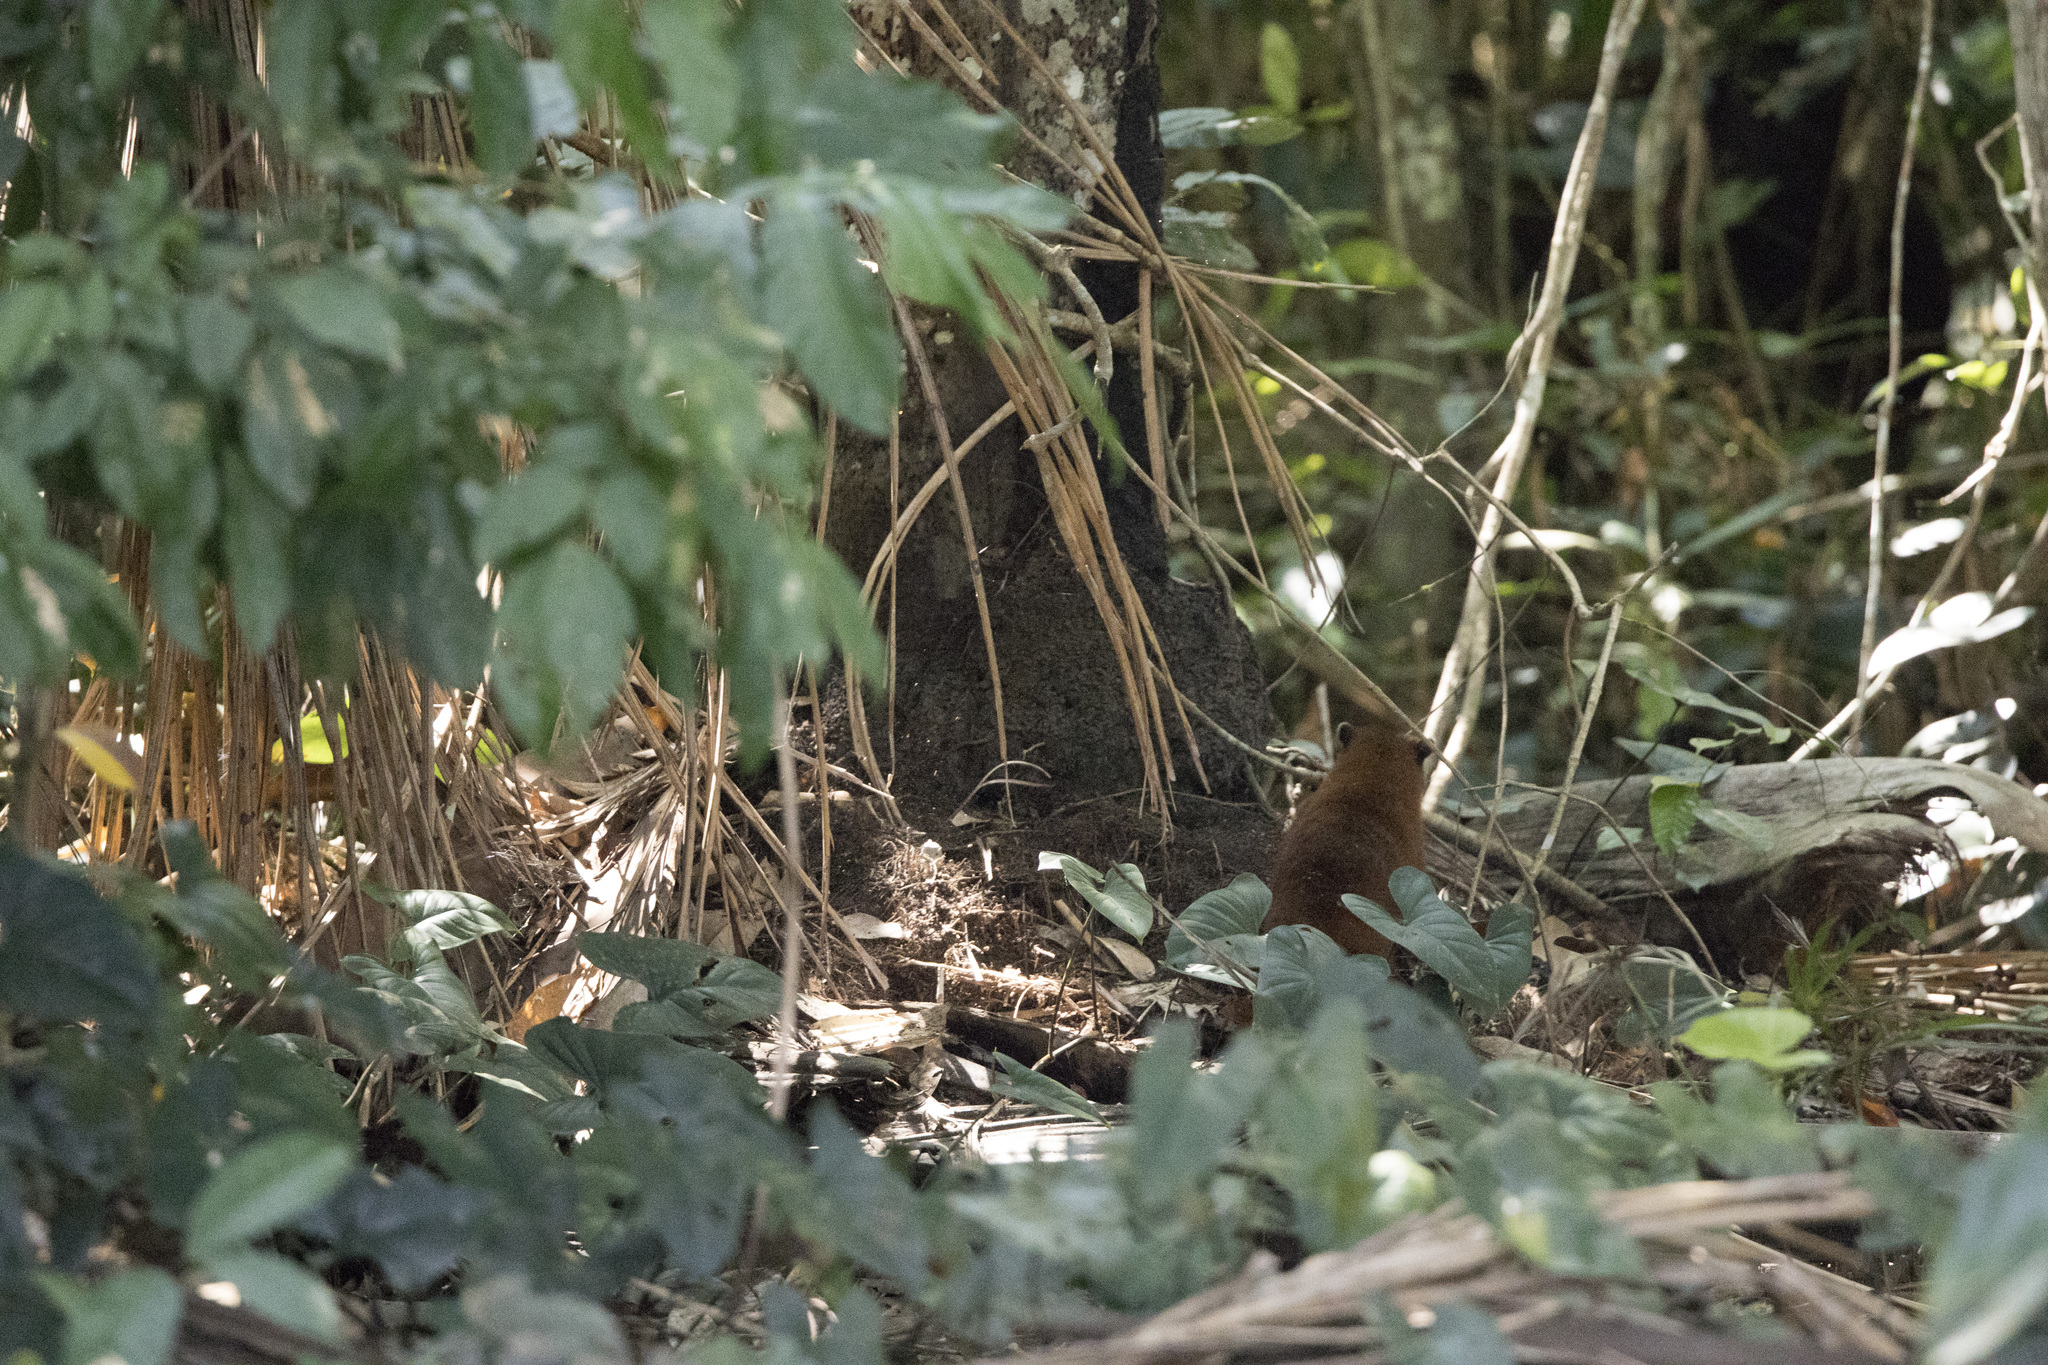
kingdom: Animalia
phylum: Chordata
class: Mammalia
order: Carnivora
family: Procyonidae
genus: Nasua
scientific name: Nasua nasua
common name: South american coati
